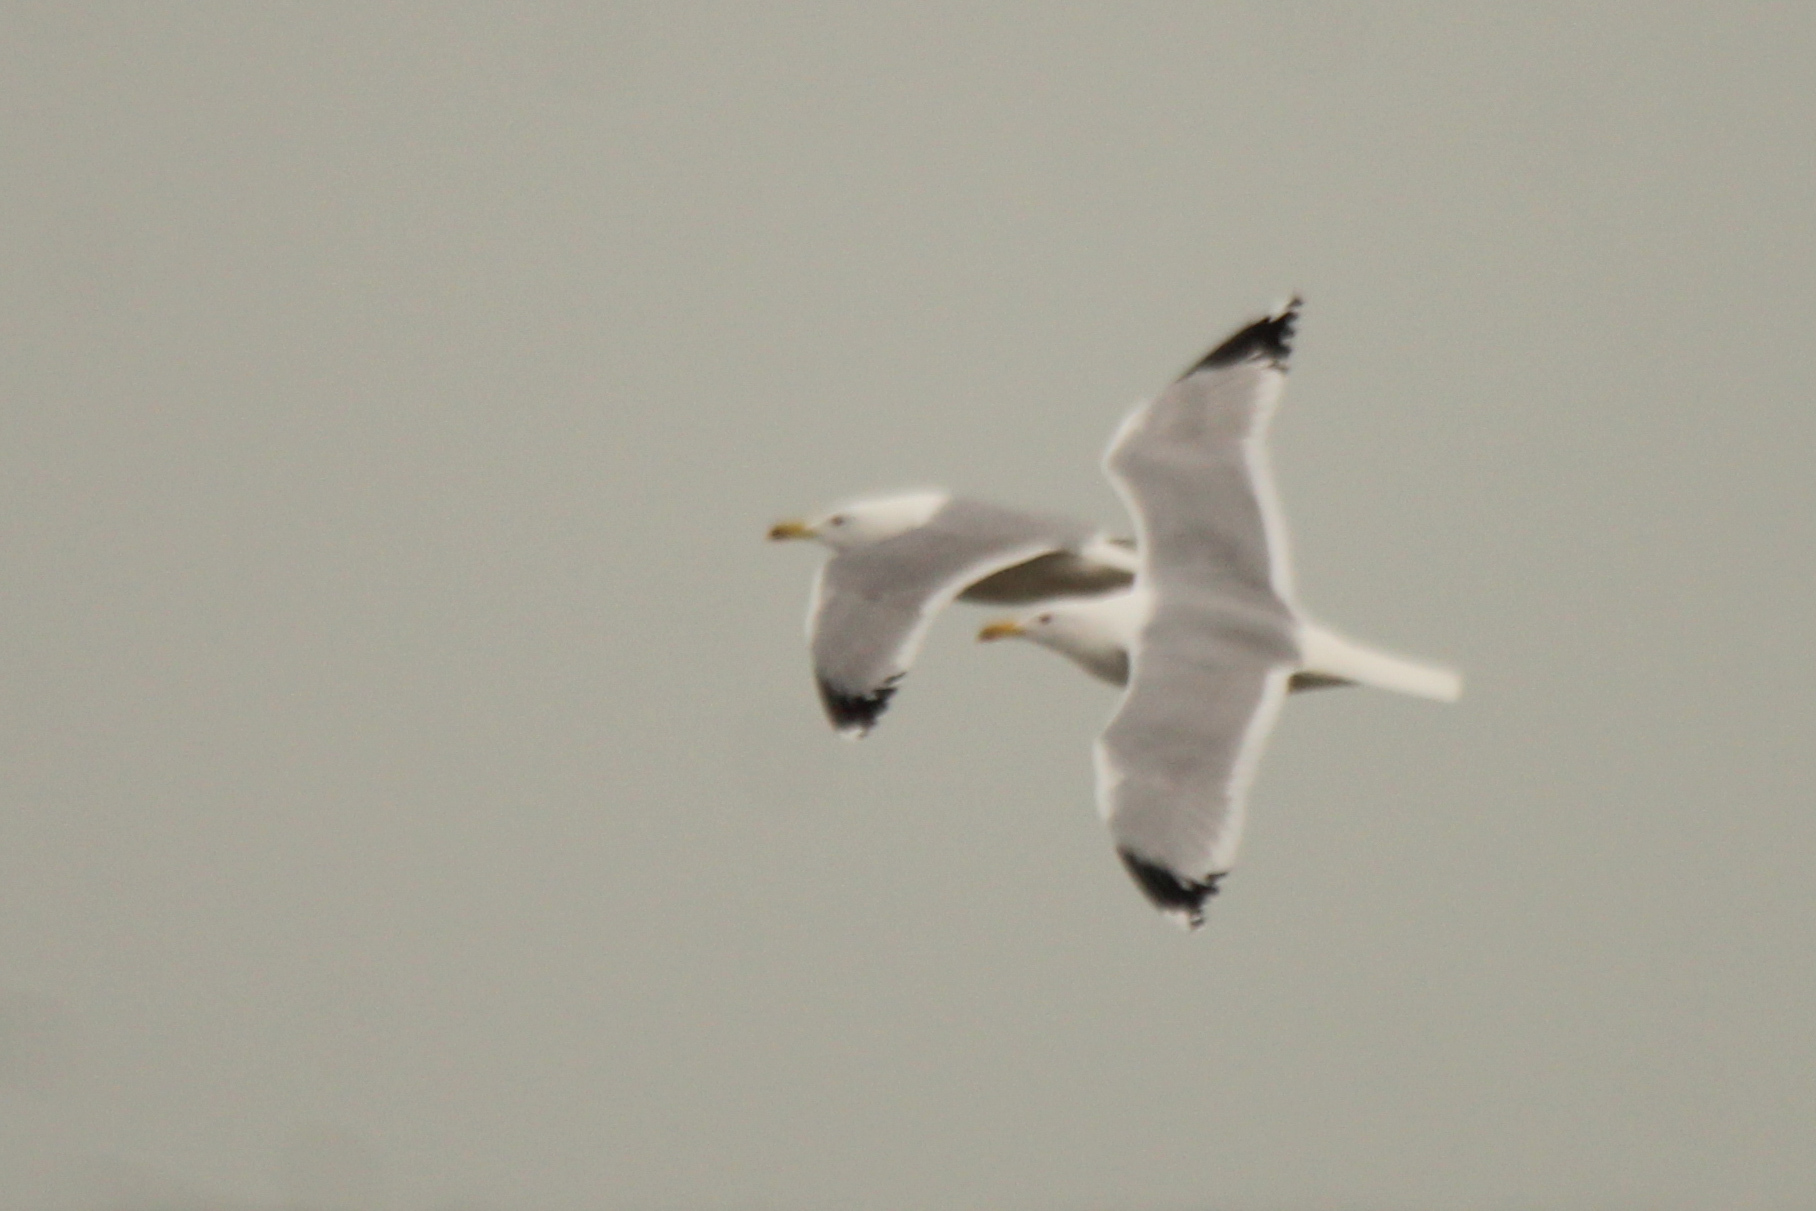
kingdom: Animalia
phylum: Chordata
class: Aves
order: Charadriiformes
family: Laridae
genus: Larus
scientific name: Larus cachinnans
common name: Caspian gull
